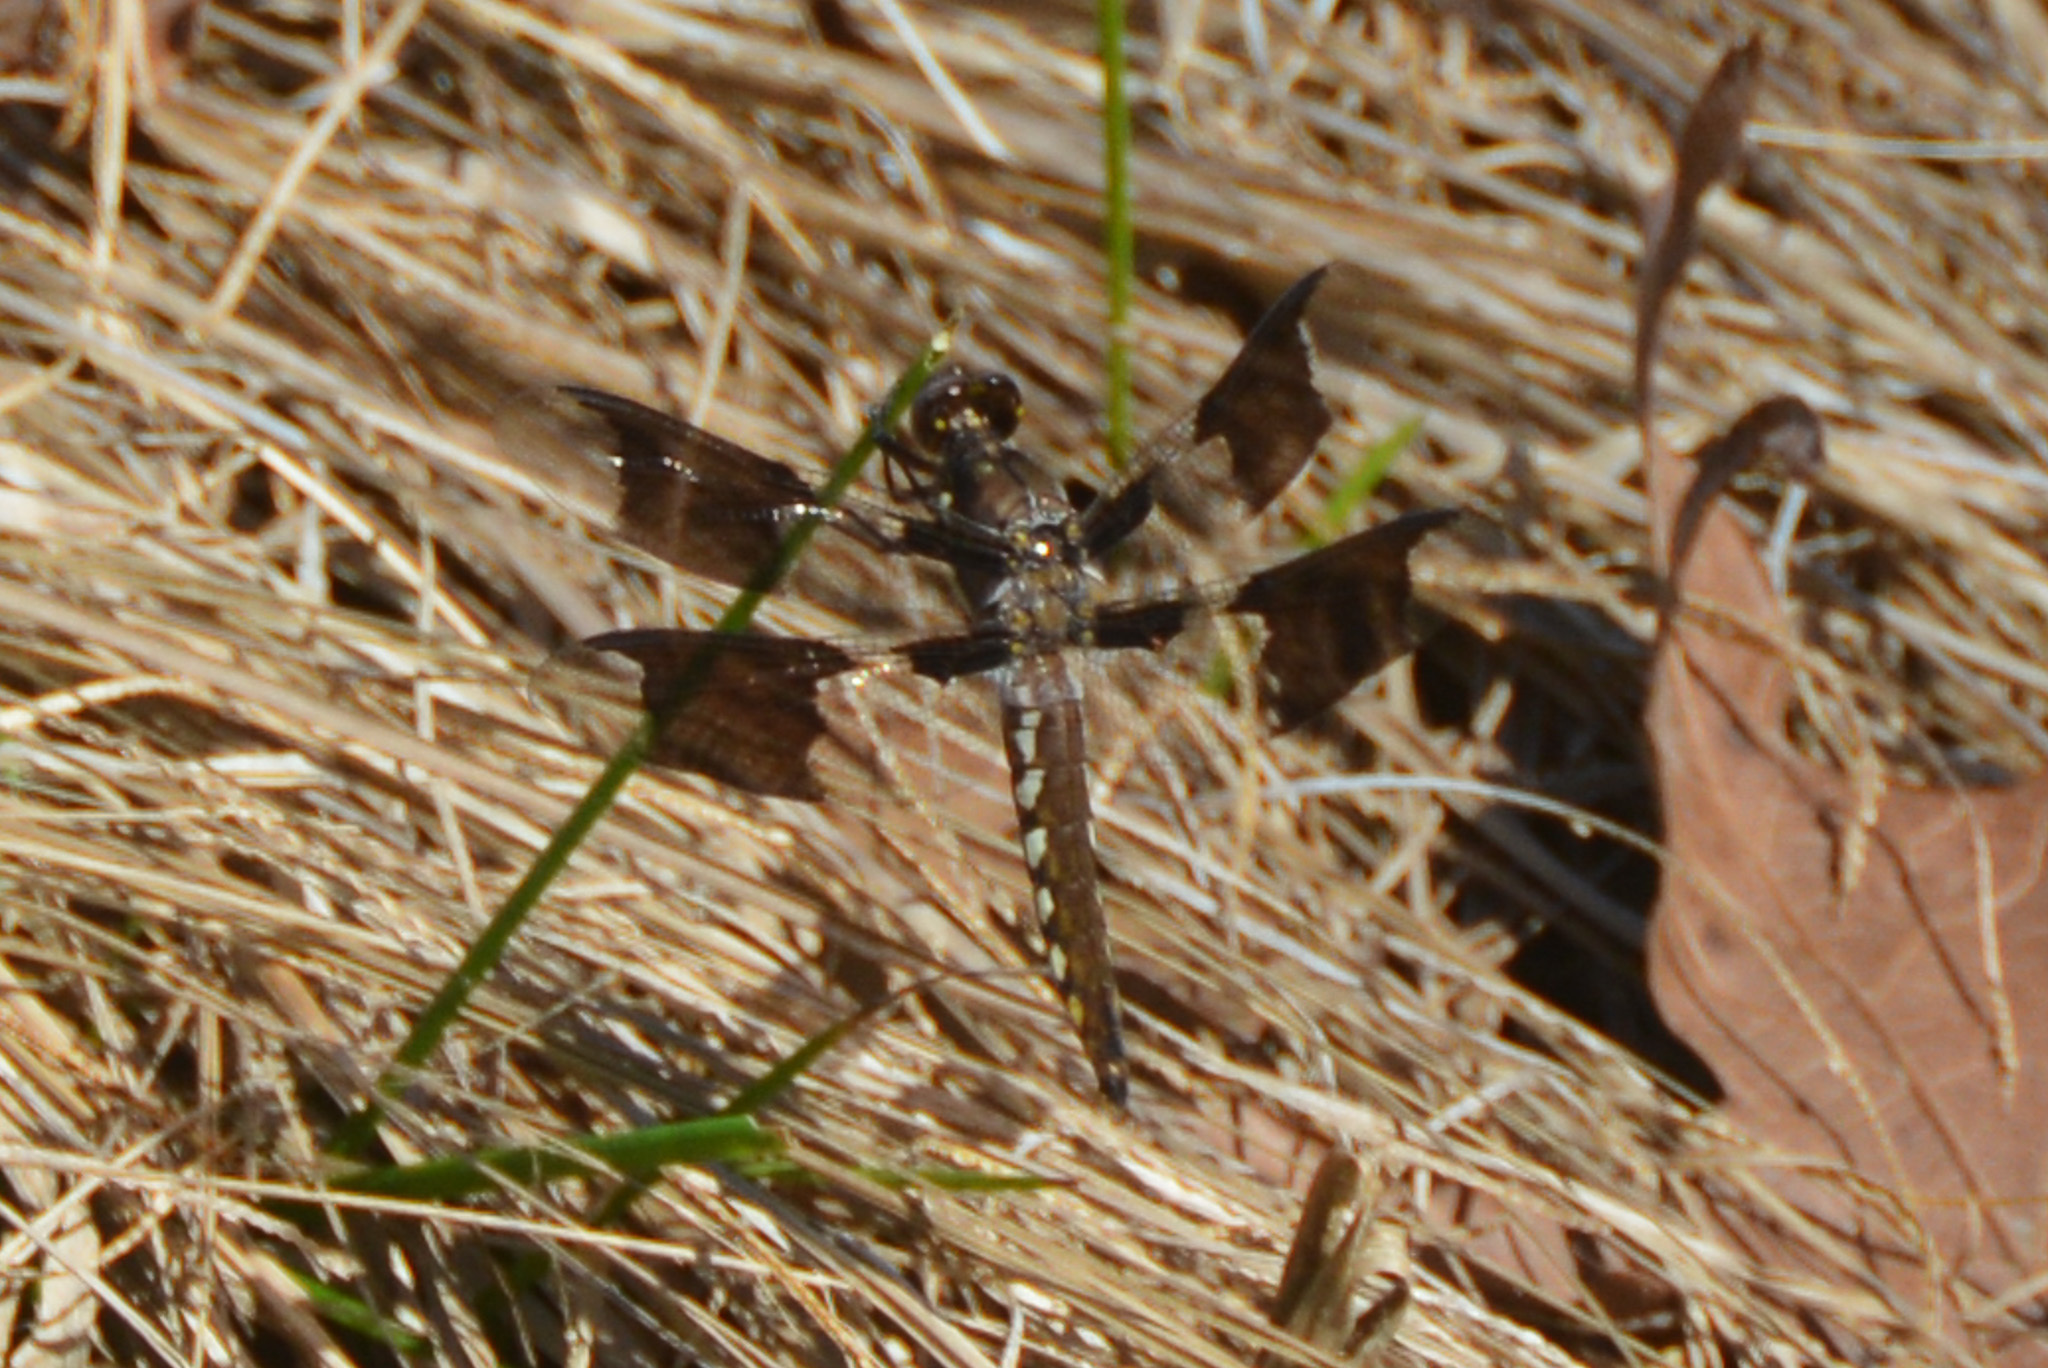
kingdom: Animalia
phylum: Arthropoda
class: Insecta
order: Odonata
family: Libellulidae
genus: Plathemis
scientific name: Plathemis lydia
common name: Common whitetail
